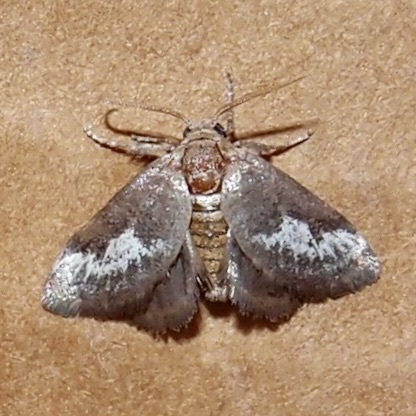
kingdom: Animalia
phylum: Arthropoda
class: Insecta
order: Lepidoptera
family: Limacodidae
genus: Cryptophobetron
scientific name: Cryptophobetron oropeso
